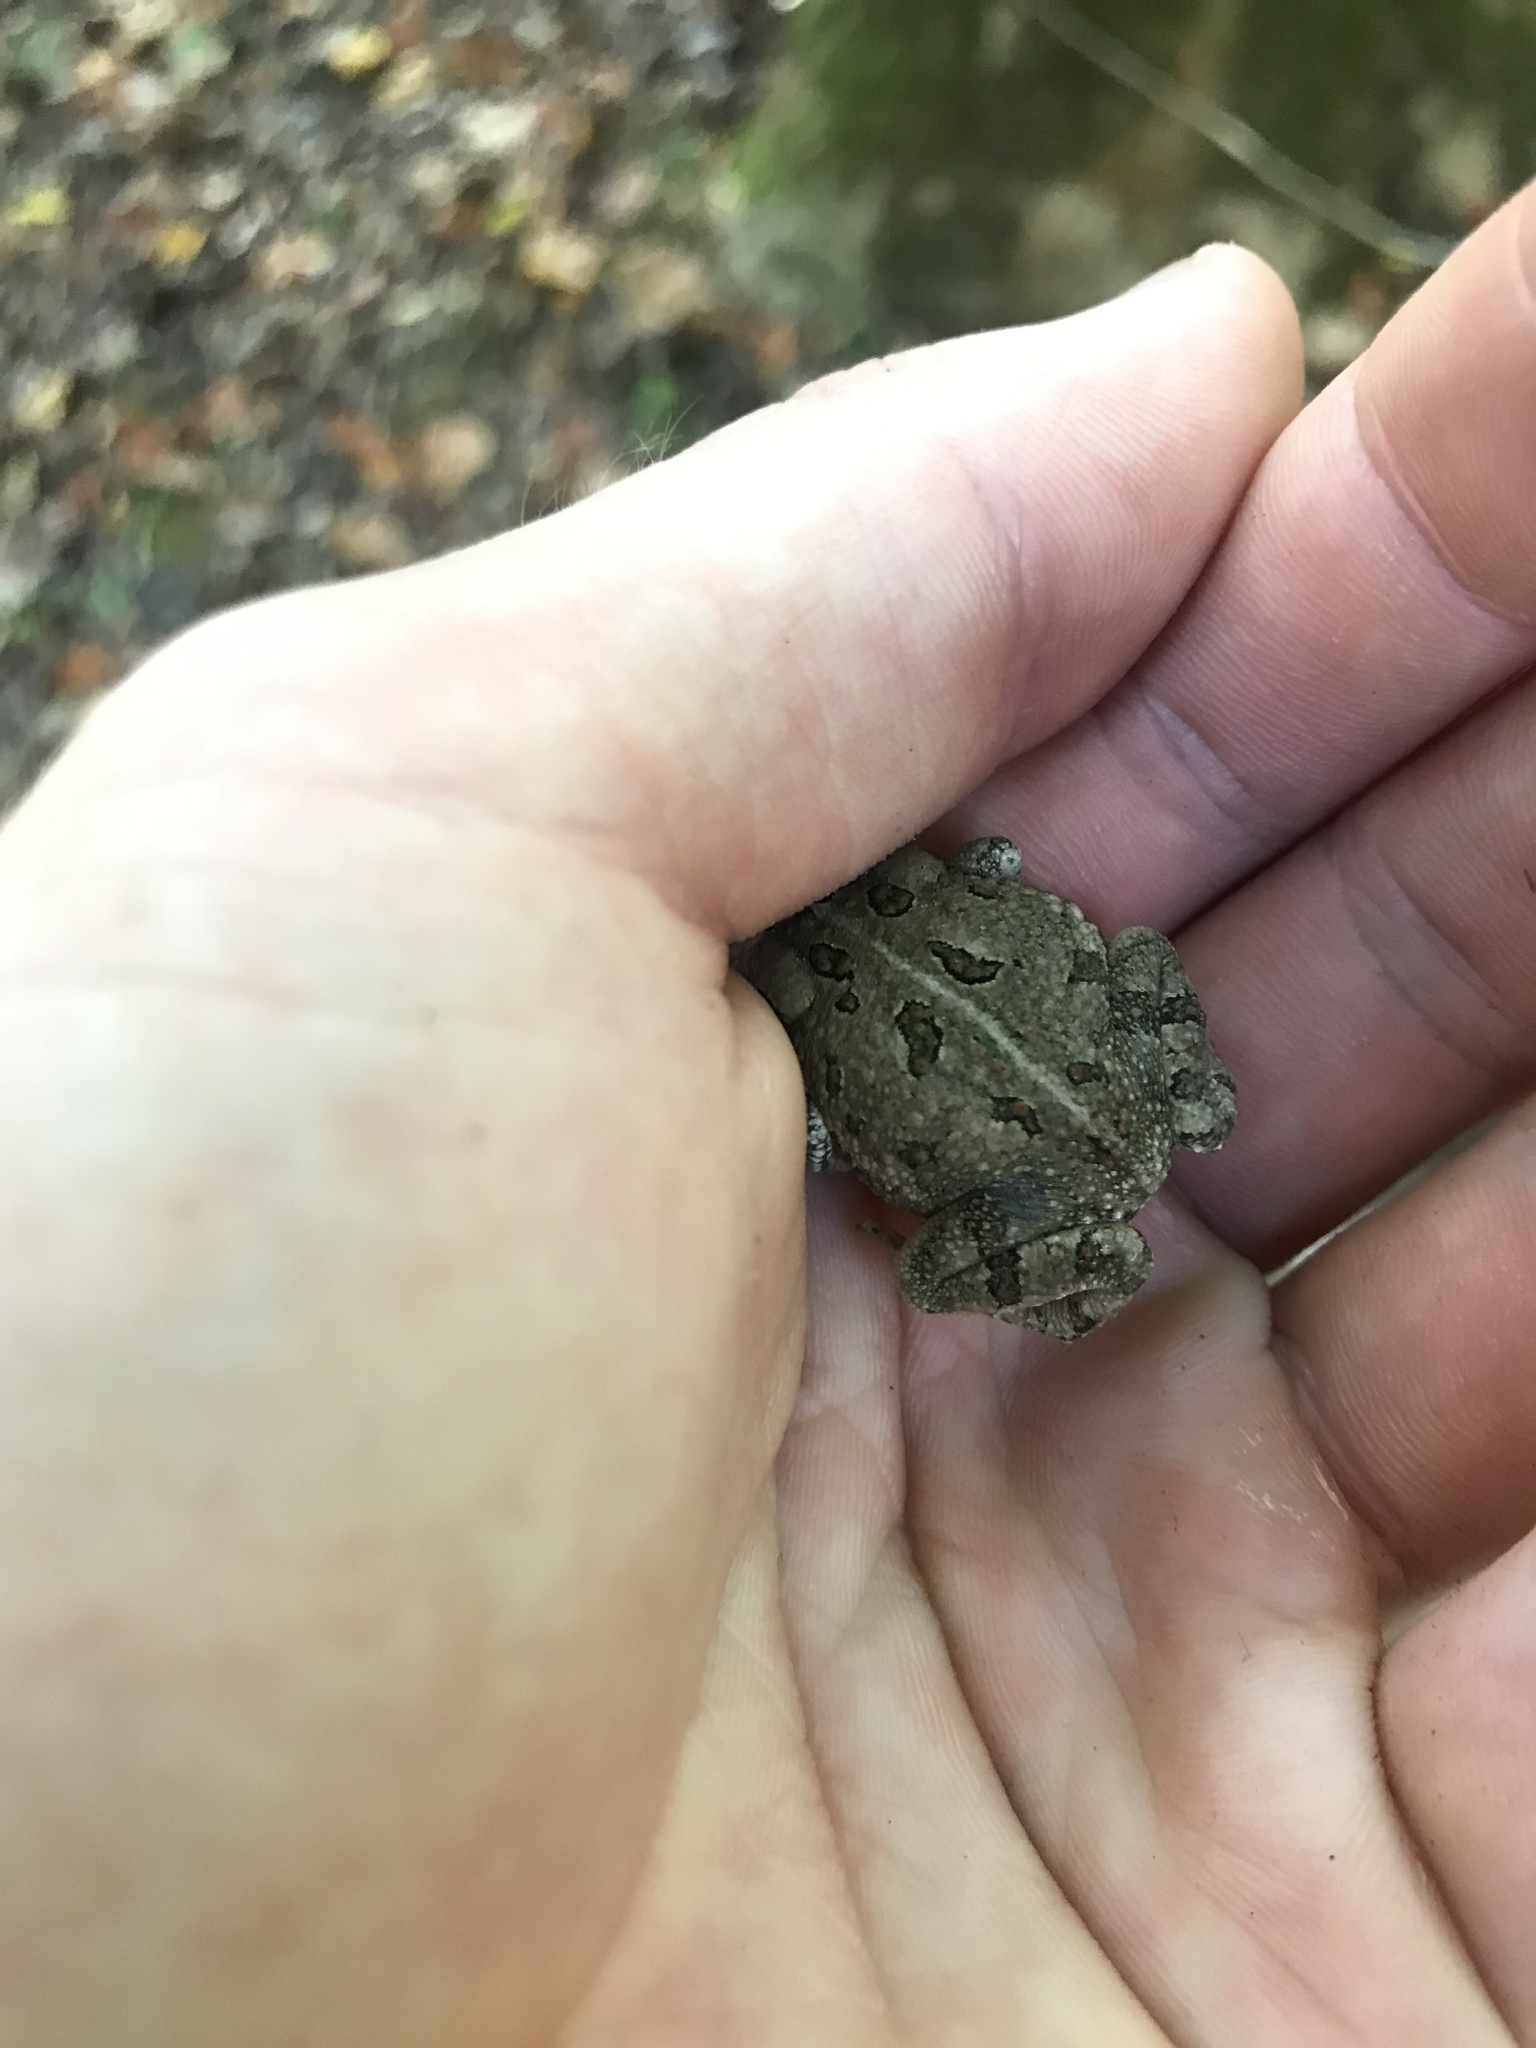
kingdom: Animalia
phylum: Chordata
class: Amphibia
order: Anura
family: Bufonidae
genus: Anaxyrus
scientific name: Anaxyrus fowleri
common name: Fowler's toad
